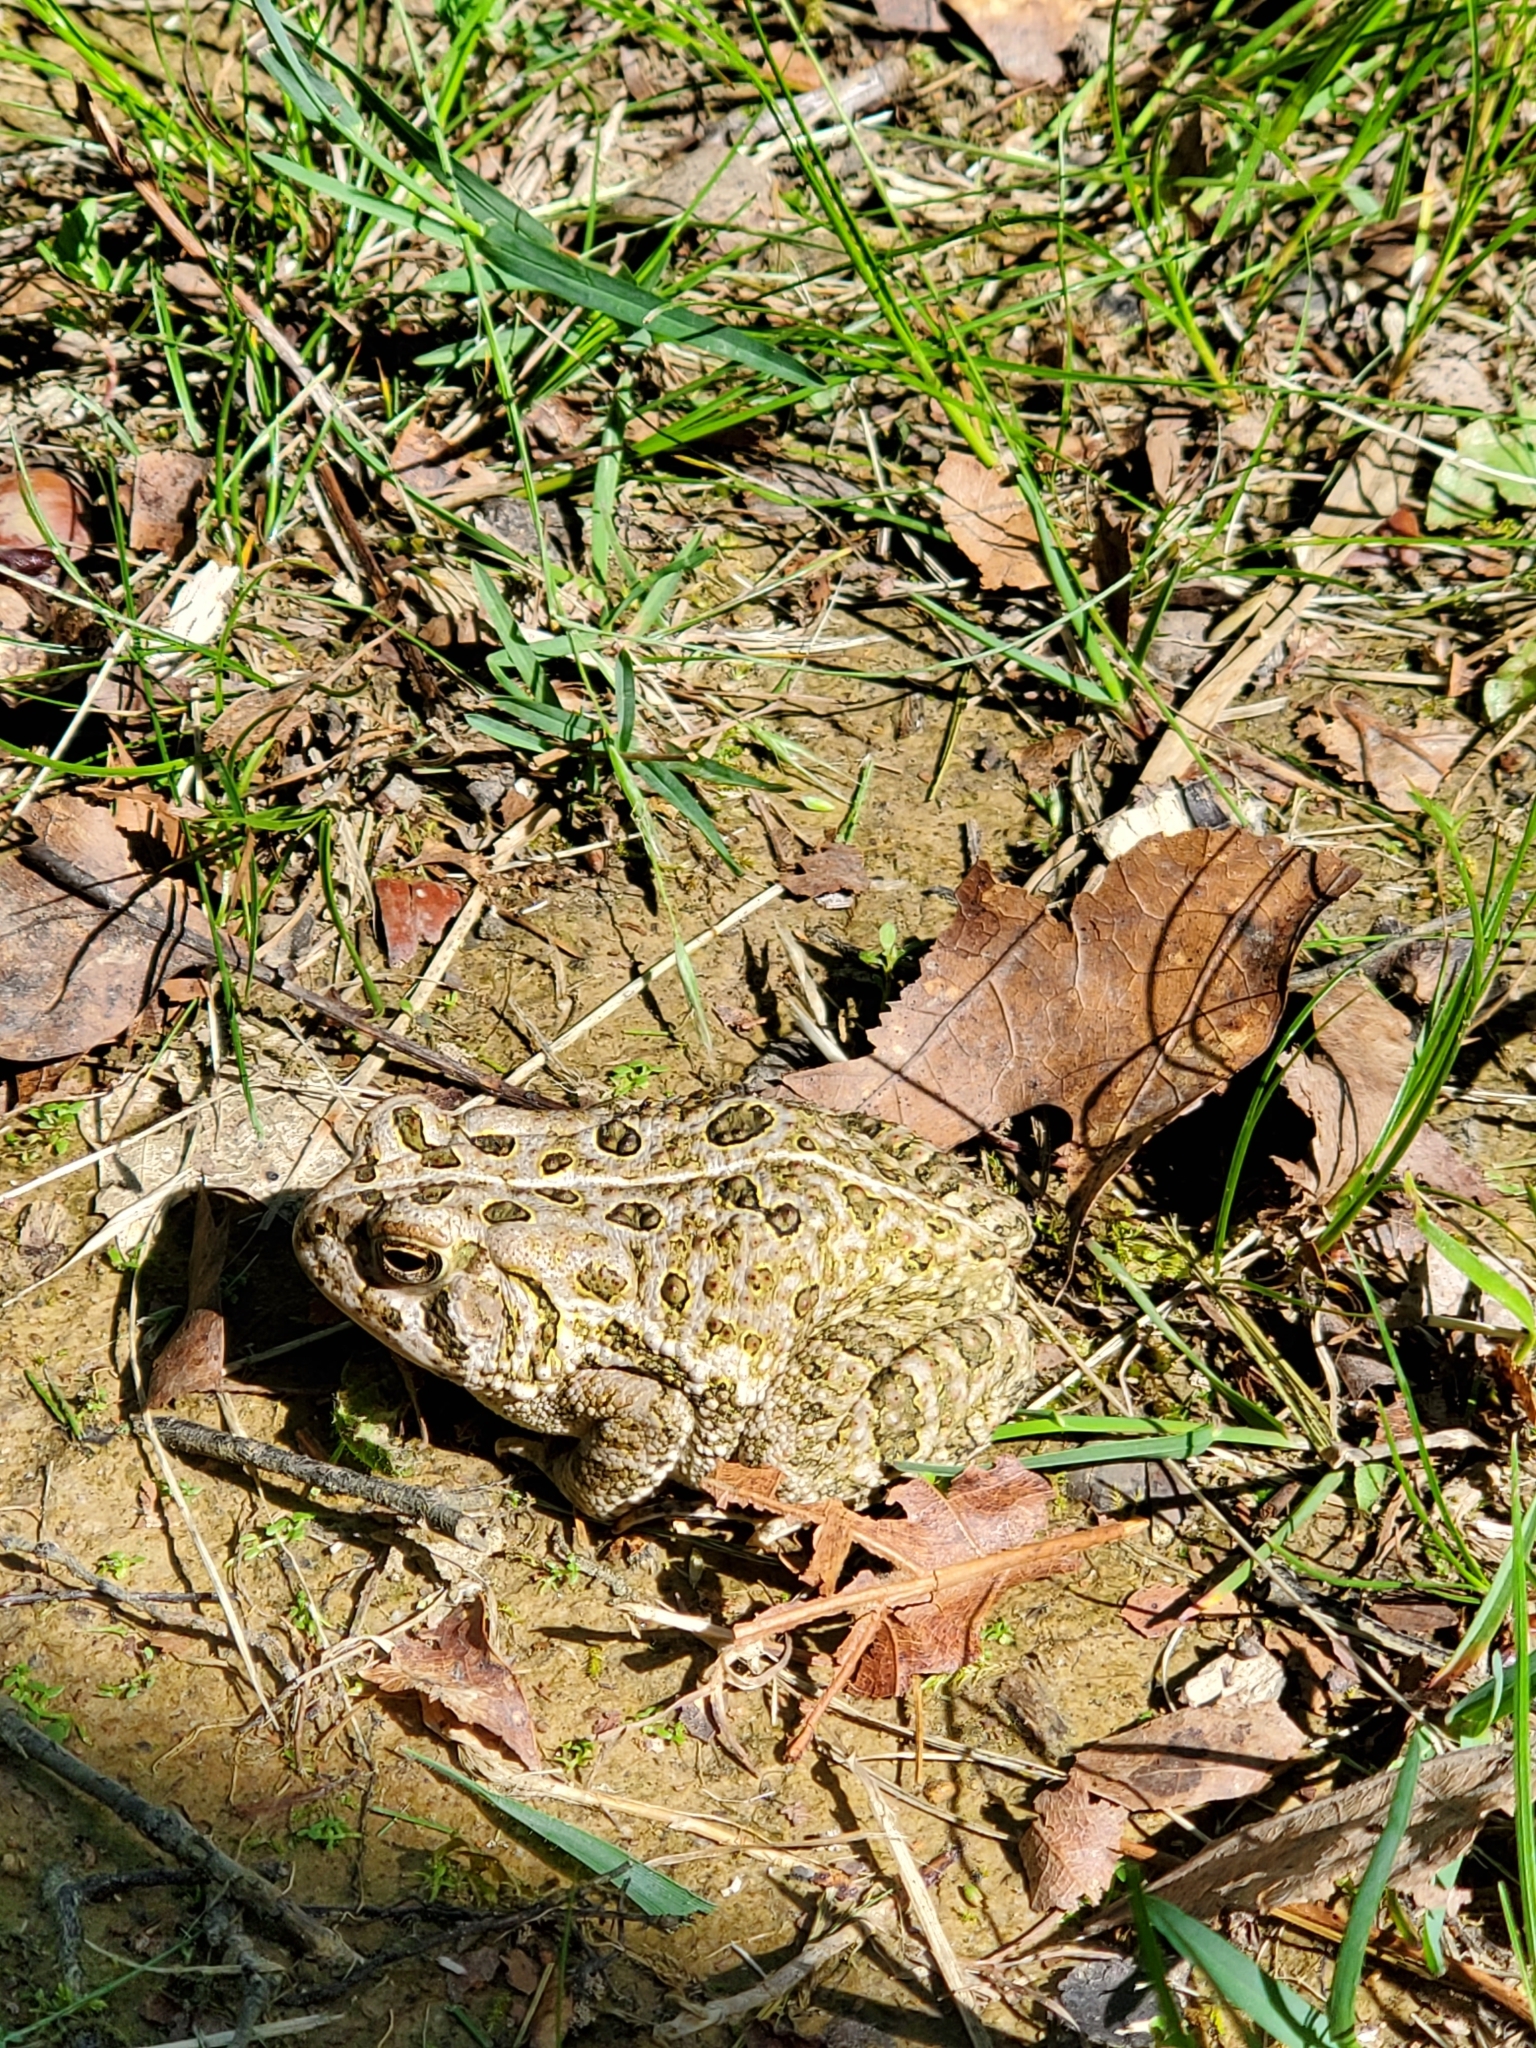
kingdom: Animalia
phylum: Chordata
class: Amphibia
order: Anura
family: Bufonidae
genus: Anaxyrus
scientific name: Anaxyrus fowleri
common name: Fowler's toad
